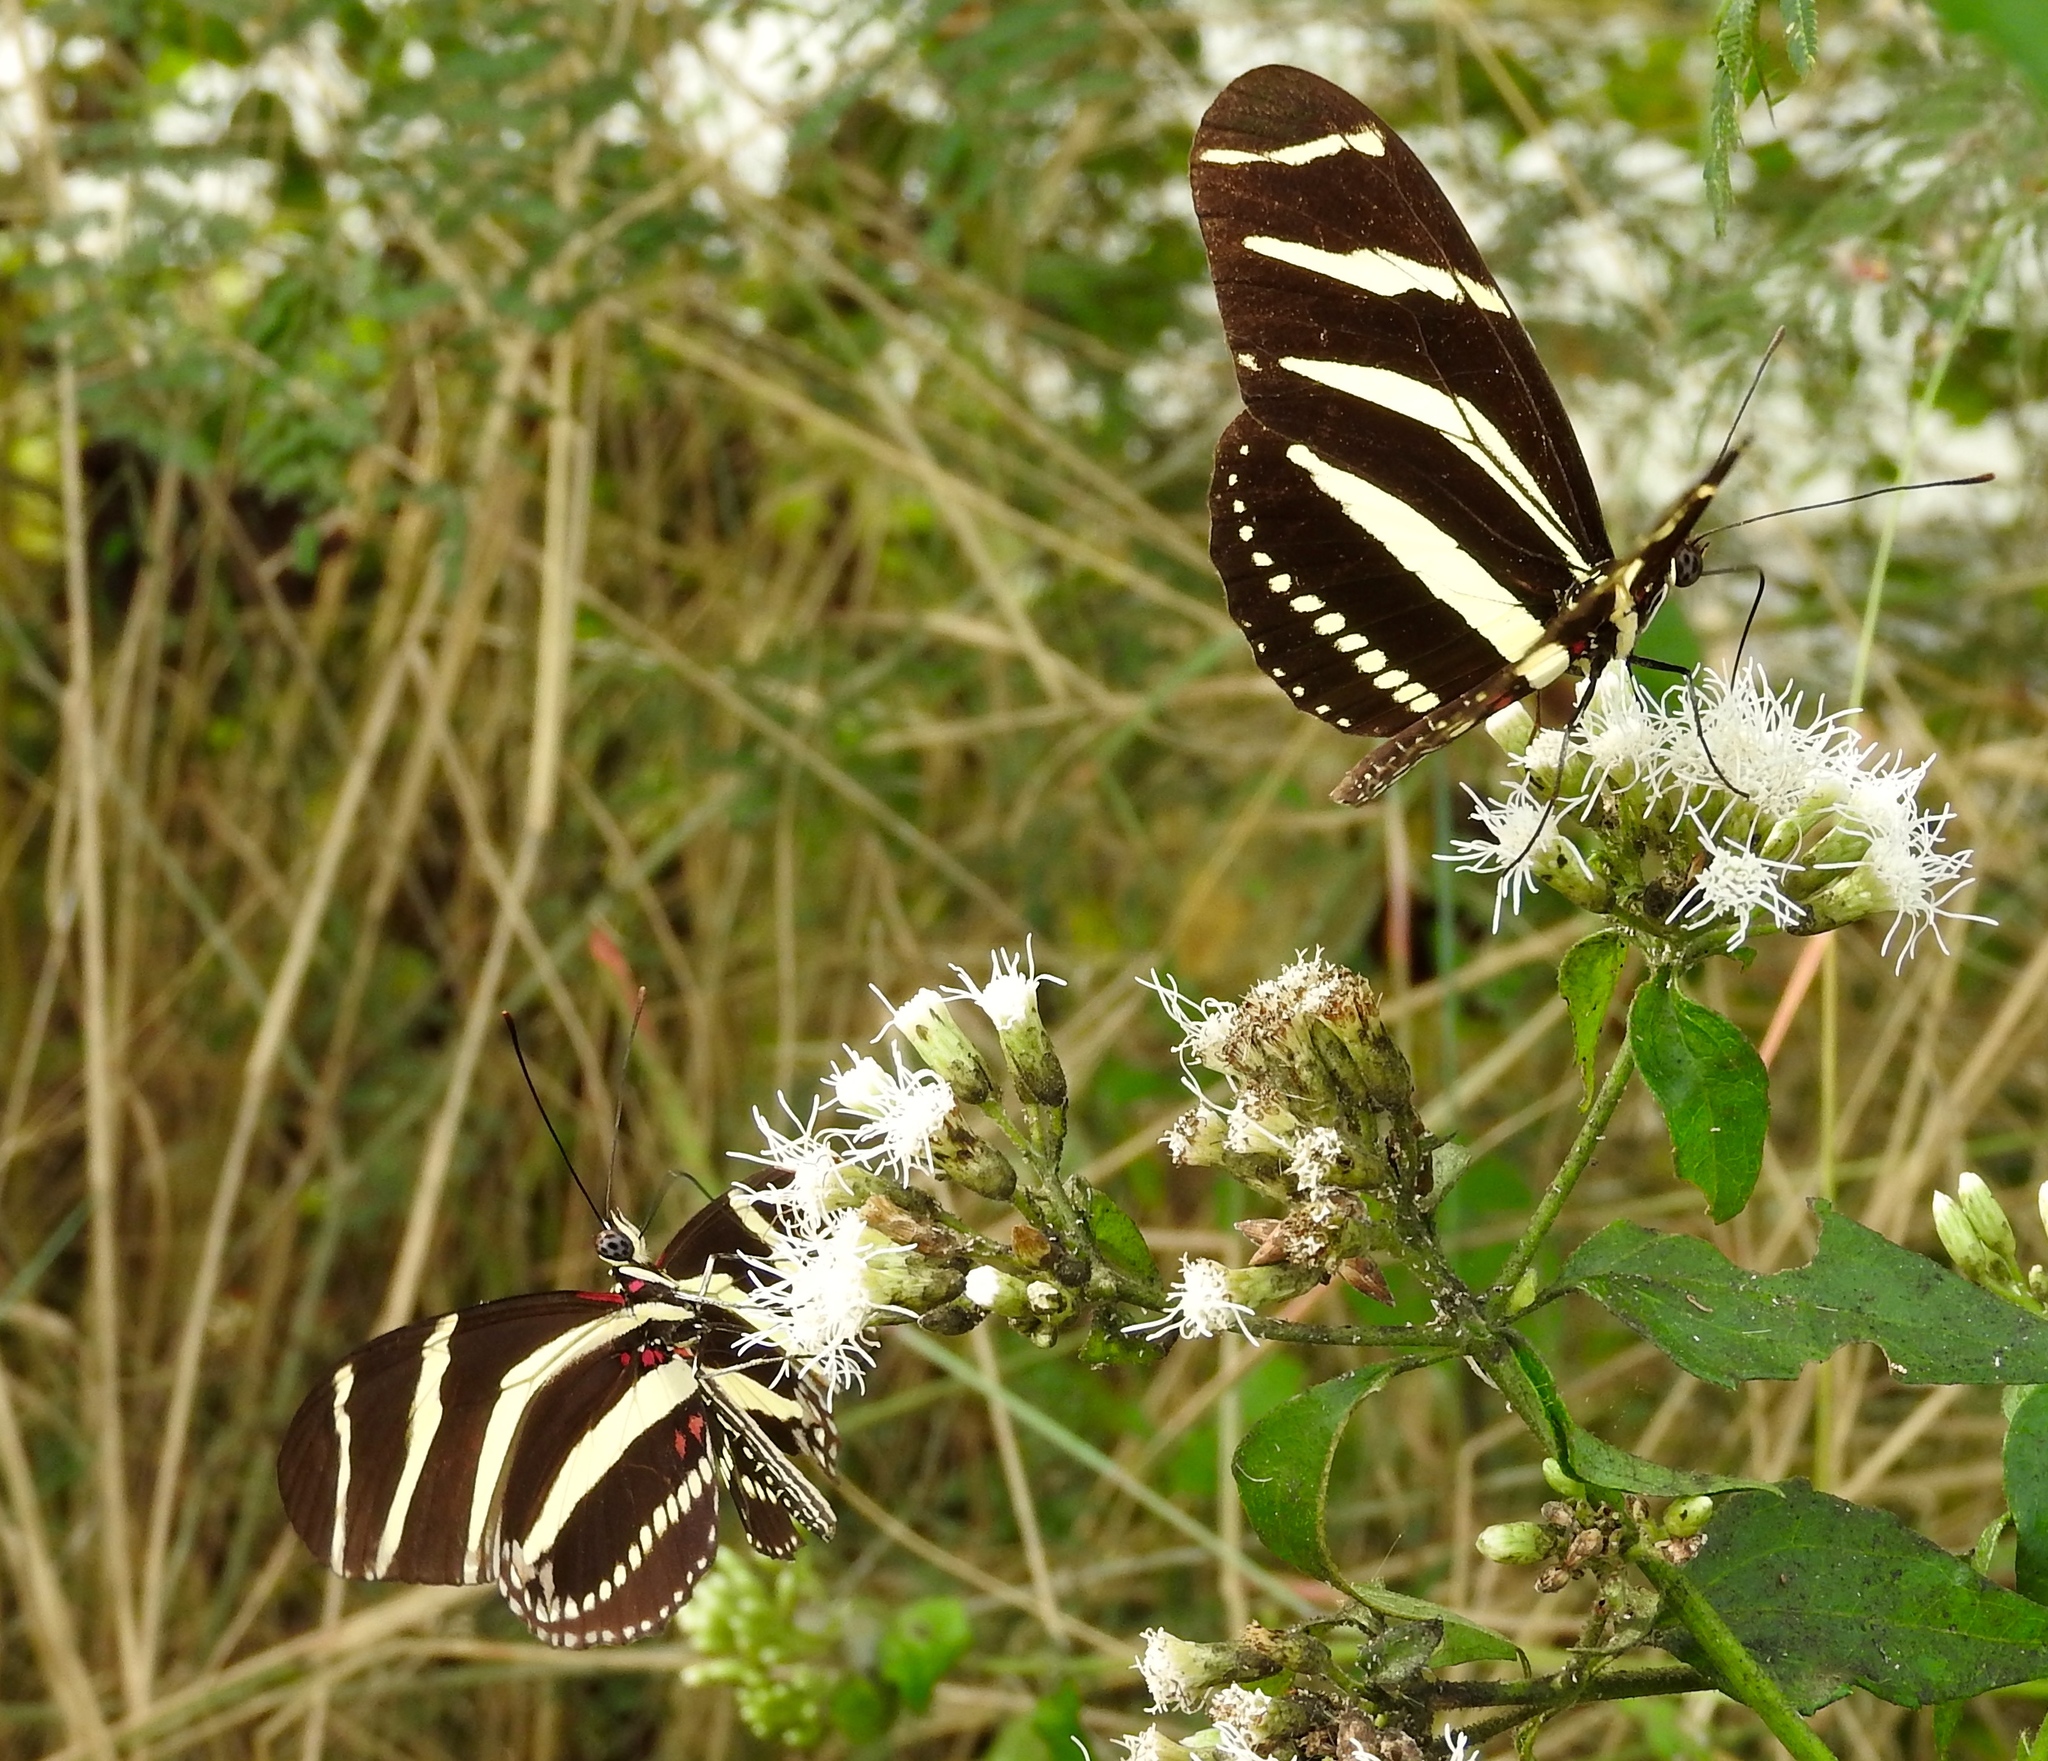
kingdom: Animalia
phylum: Arthropoda
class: Insecta
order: Lepidoptera
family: Nymphalidae
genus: Heliconius
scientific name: Heliconius charithonia
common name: Zebra long wing
